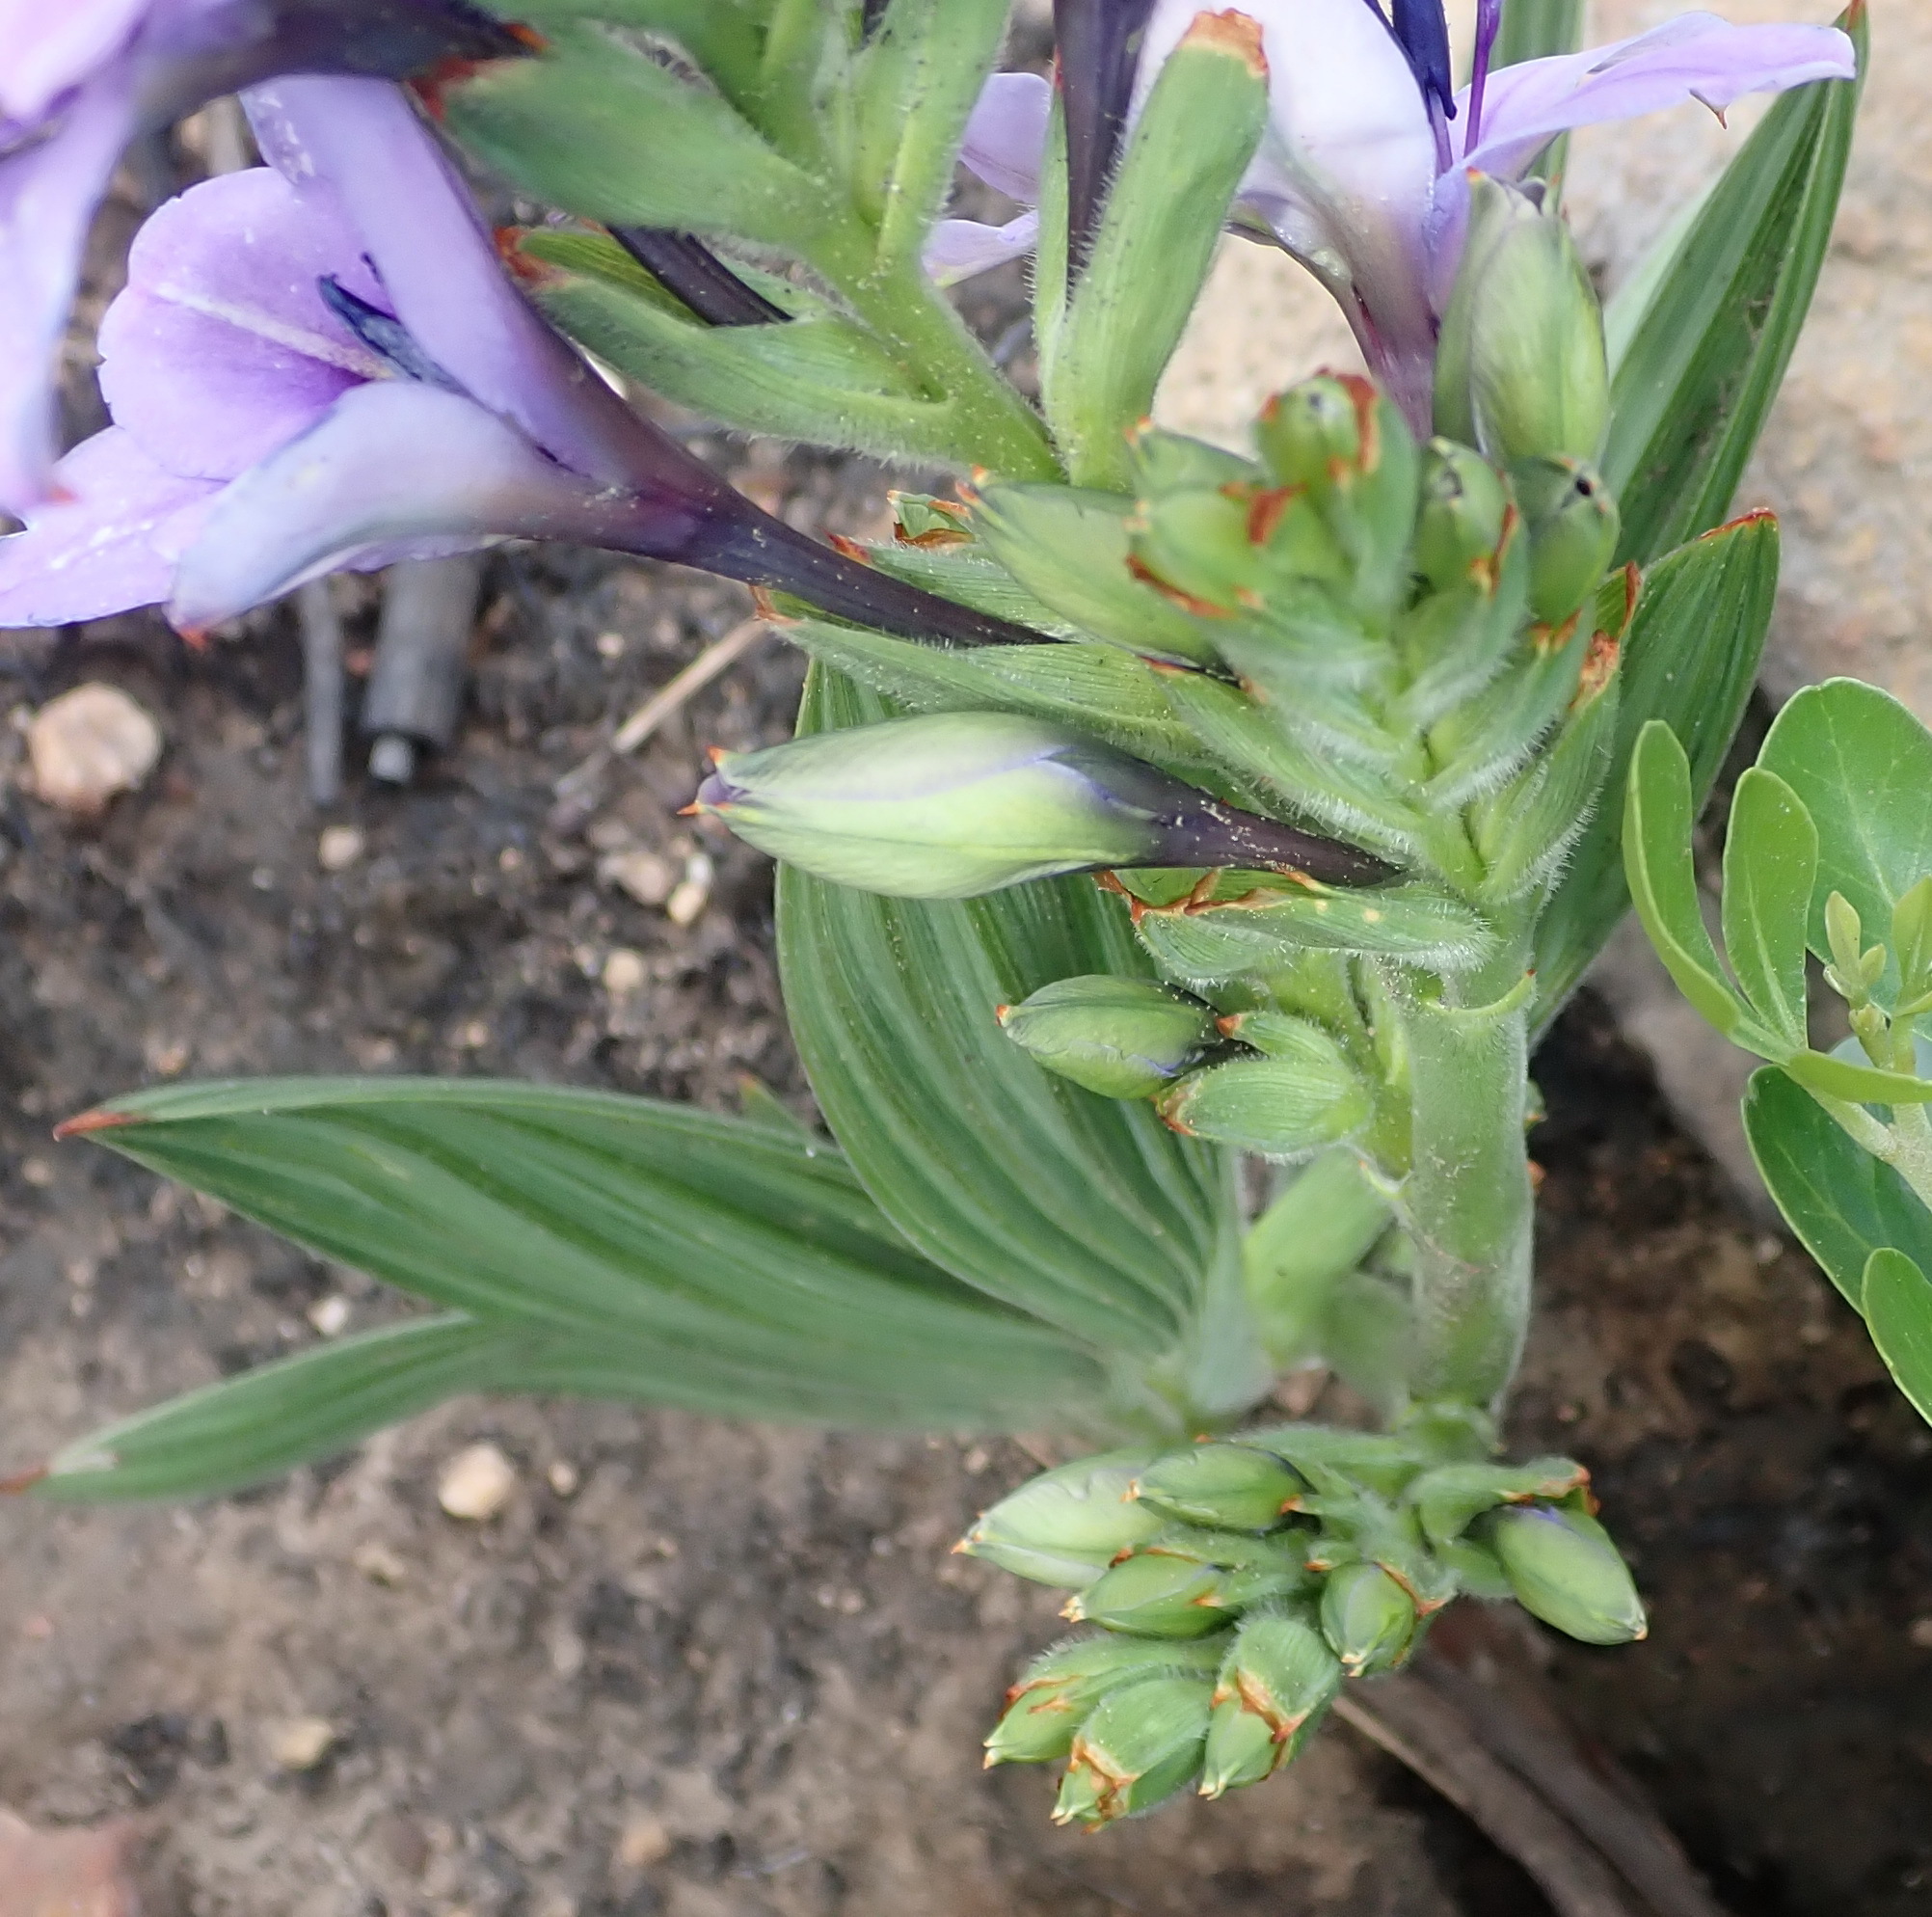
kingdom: Plantae
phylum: Tracheophyta
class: Liliopsida
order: Asparagales
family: Iridaceae
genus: Babiana
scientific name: Babiana fragrans
